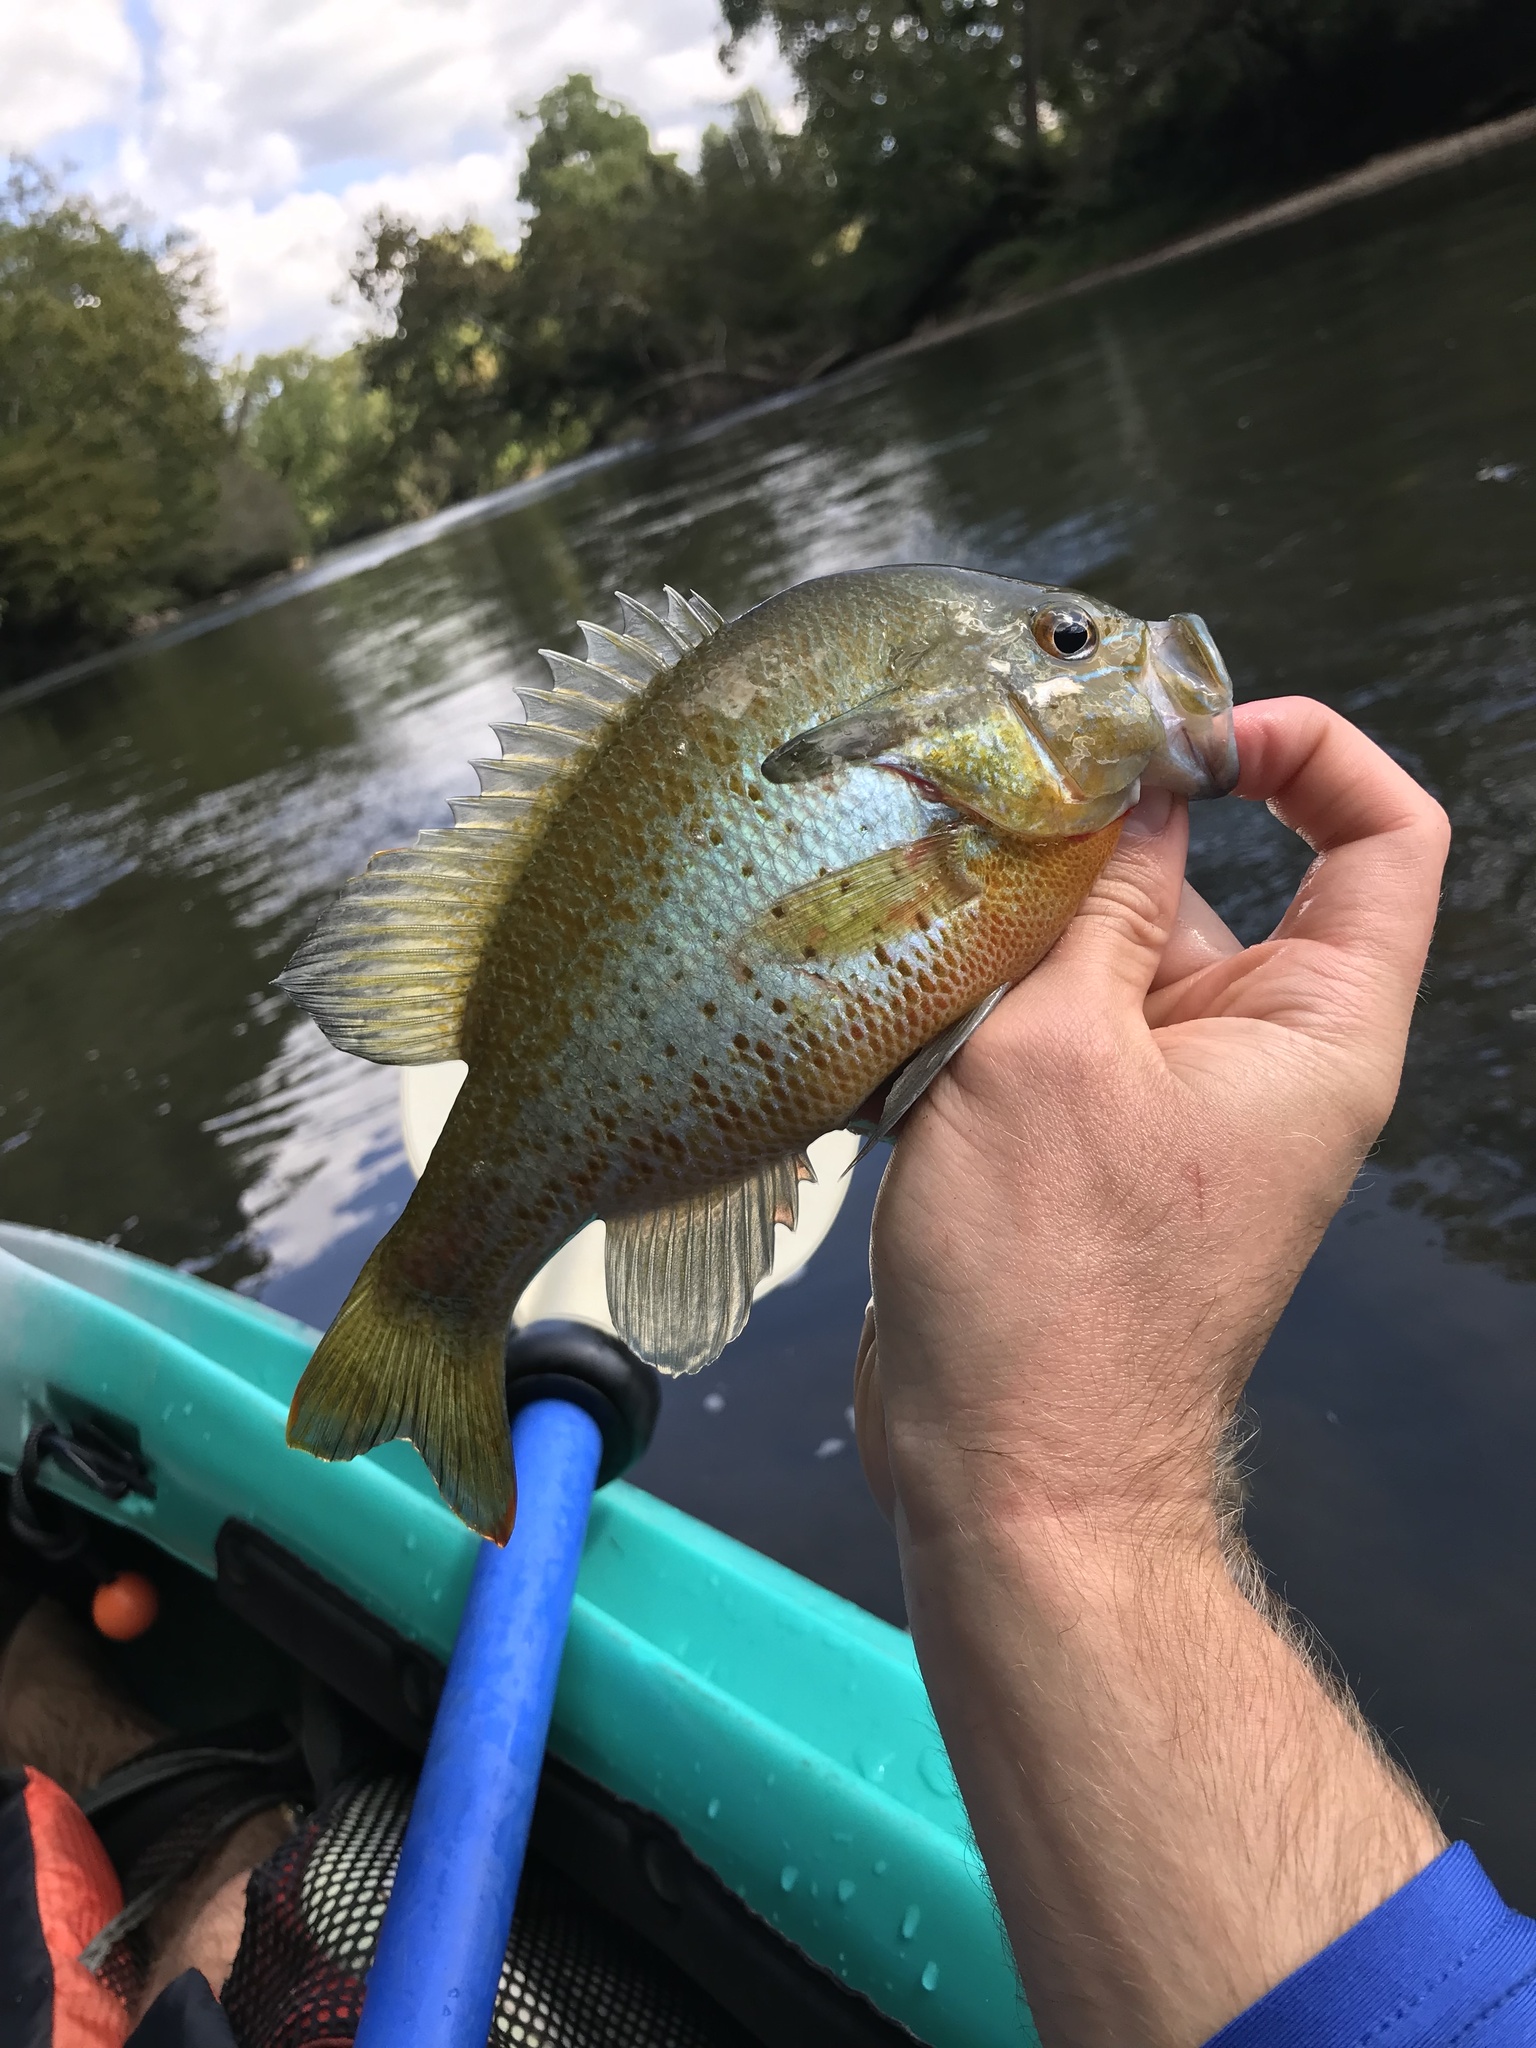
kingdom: Animalia
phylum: Chordata
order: Perciformes
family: Centrarchidae
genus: Lepomis
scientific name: Lepomis auritus
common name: Redbreast sunfish
